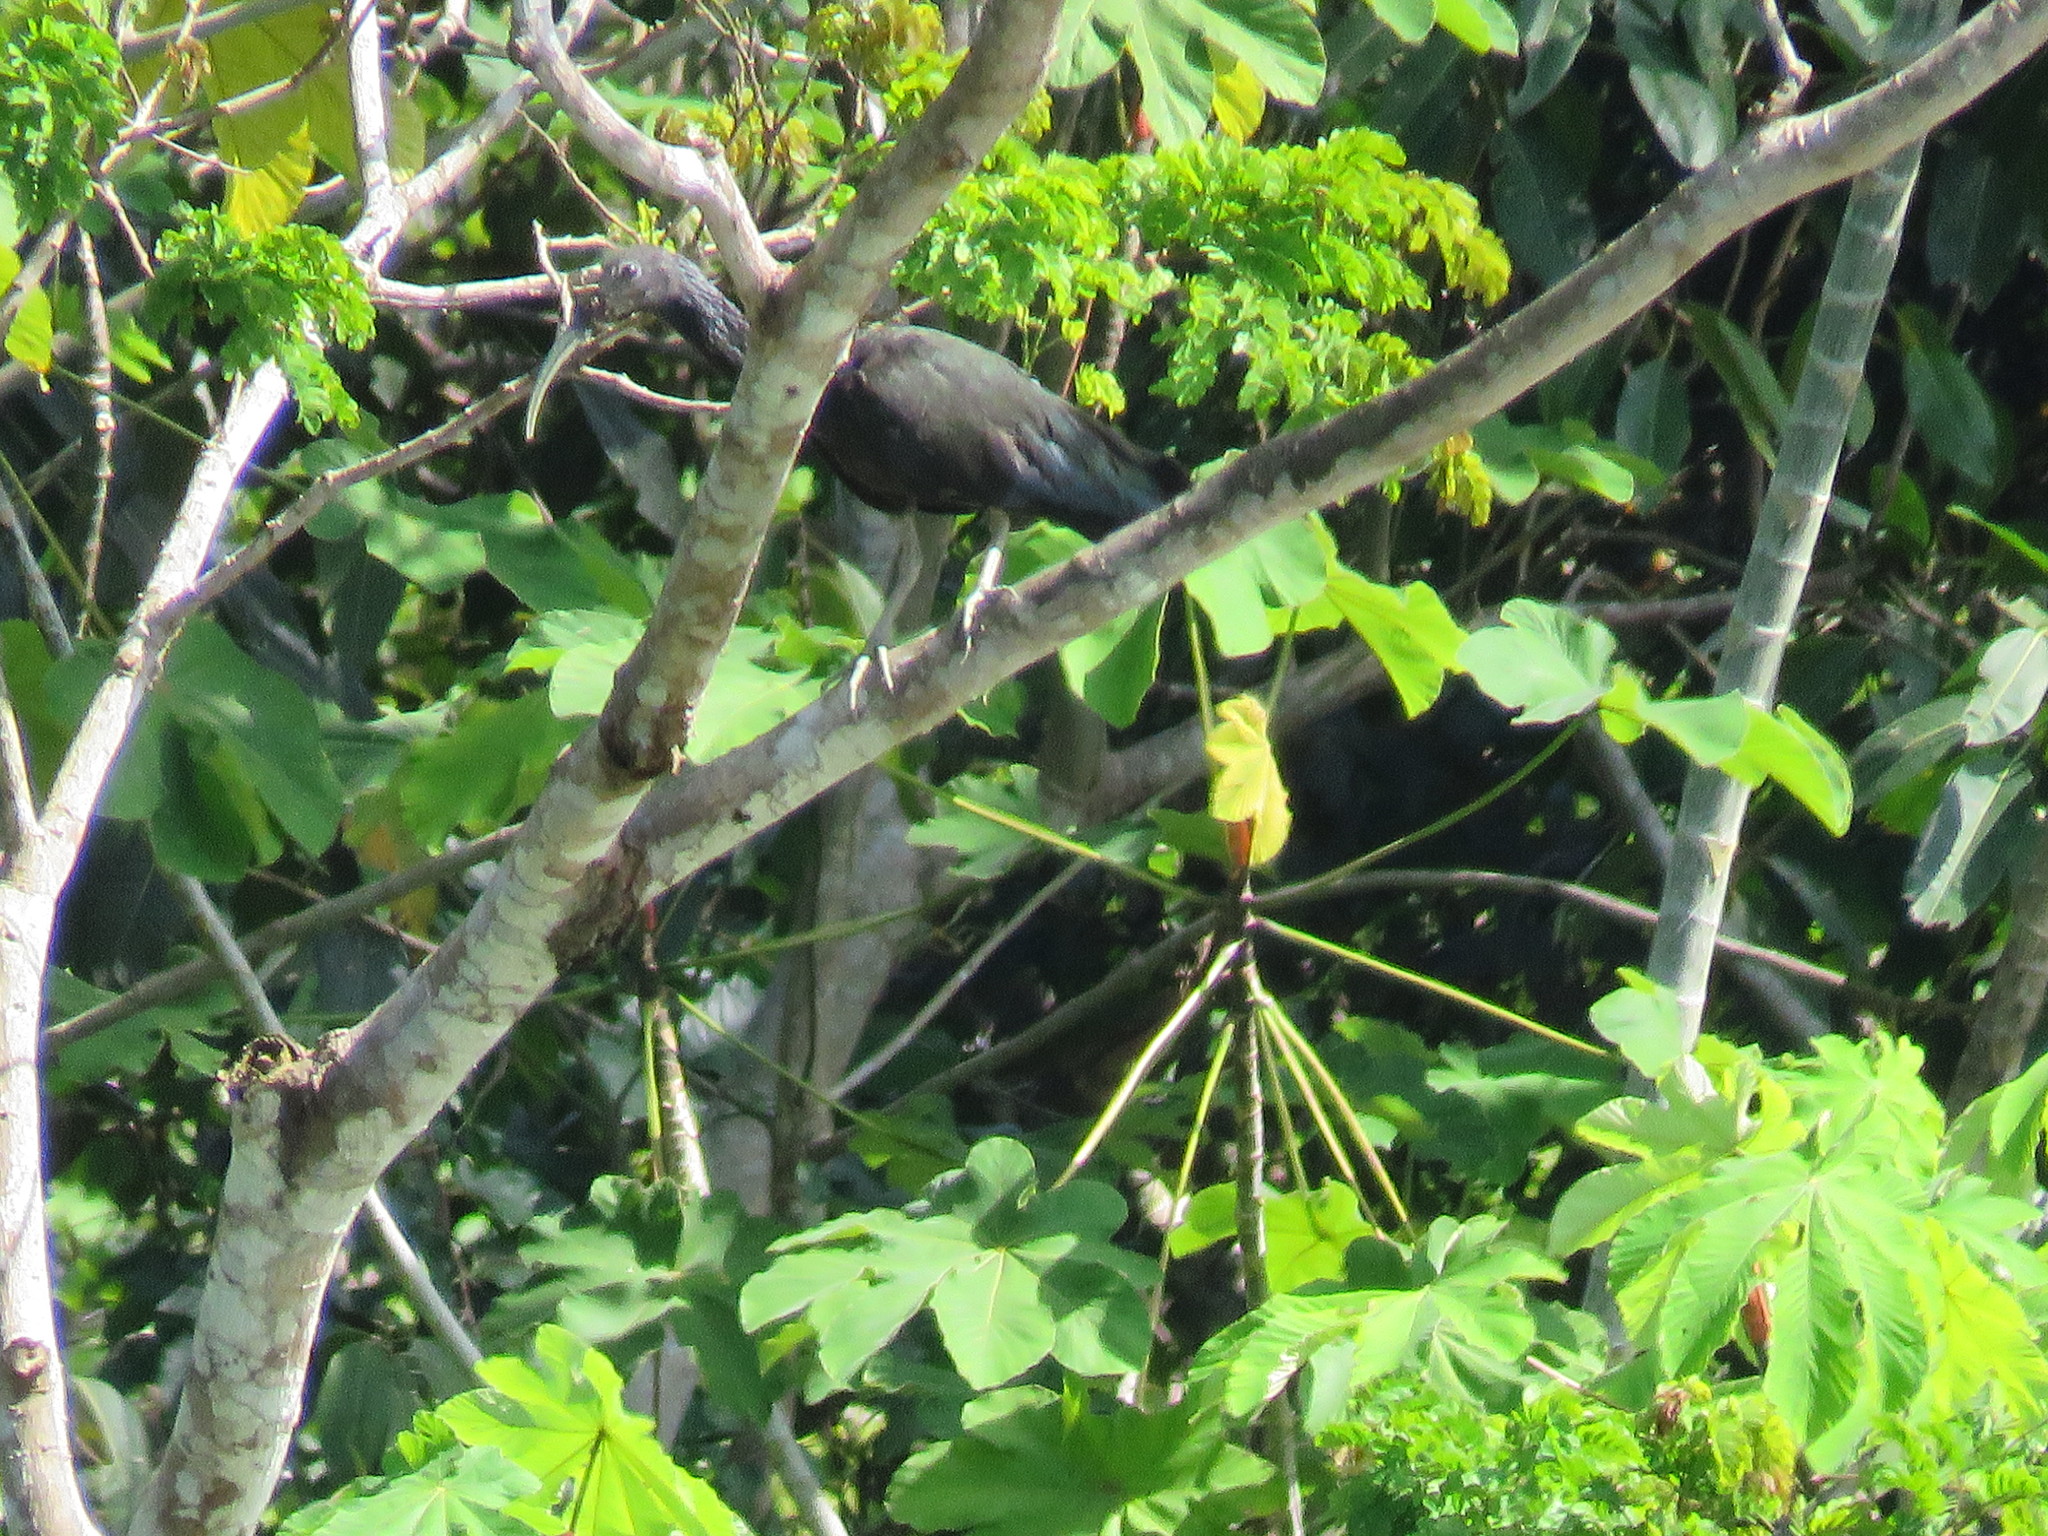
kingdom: Animalia
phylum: Chordata
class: Aves
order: Pelecaniformes
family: Threskiornithidae
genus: Mesembrinibis
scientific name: Mesembrinibis cayennensis
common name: Green ibis
